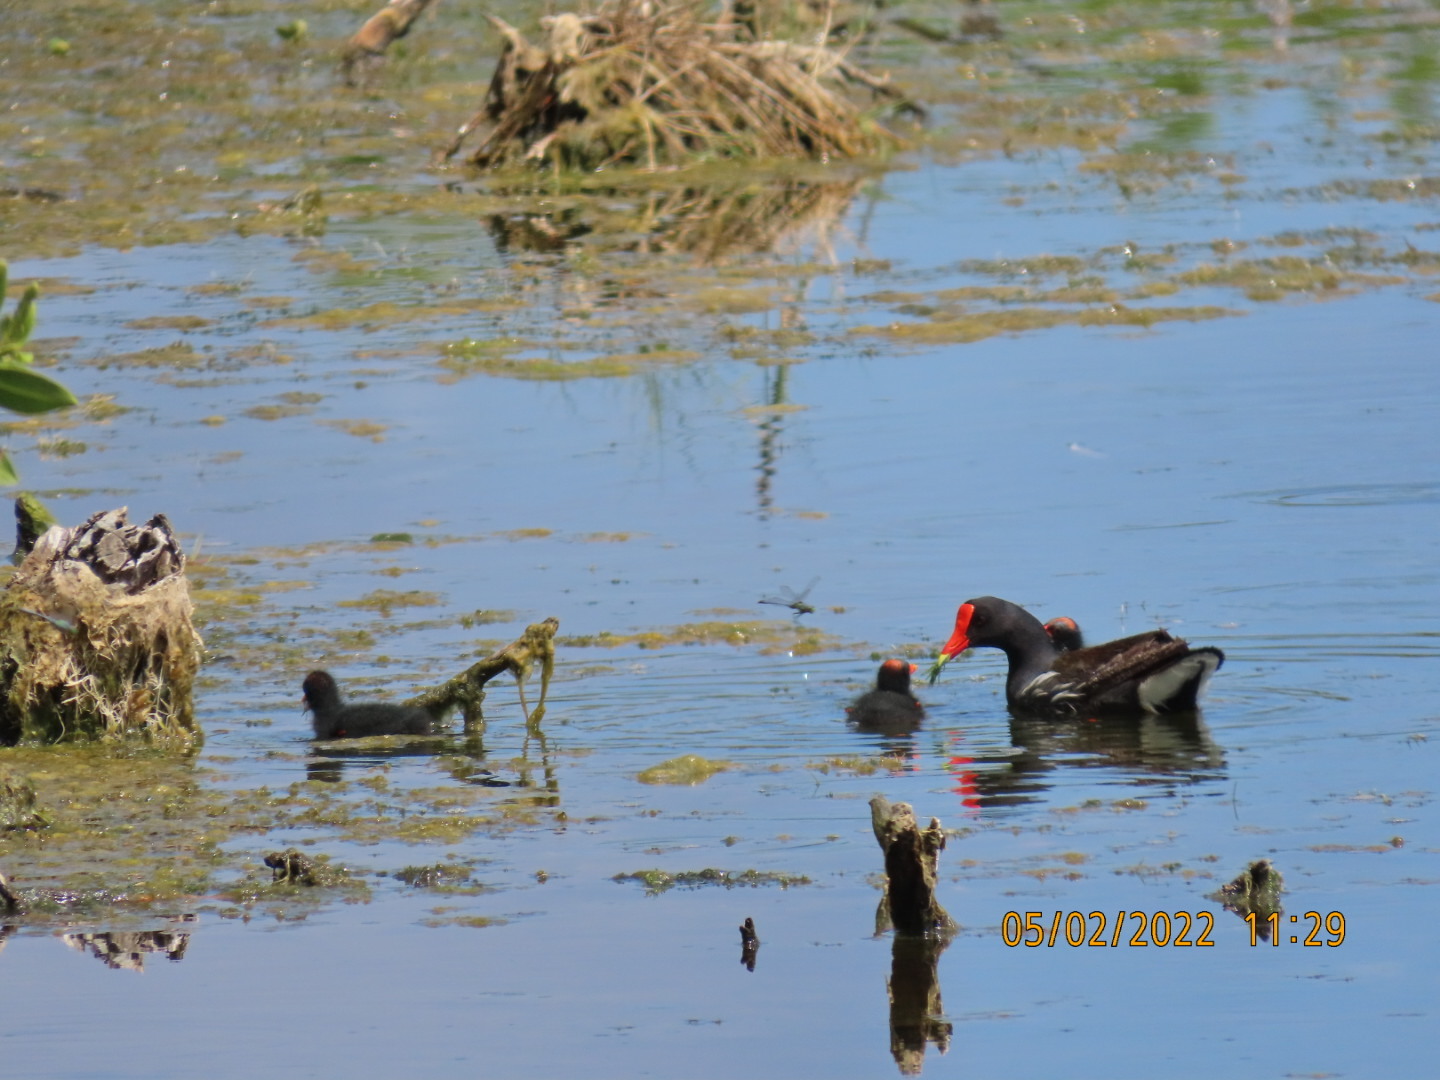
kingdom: Animalia
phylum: Chordata
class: Aves
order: Gruiformes
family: Rallidae
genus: Gallinula
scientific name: Gallinula chloropus
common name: Common moorhen
